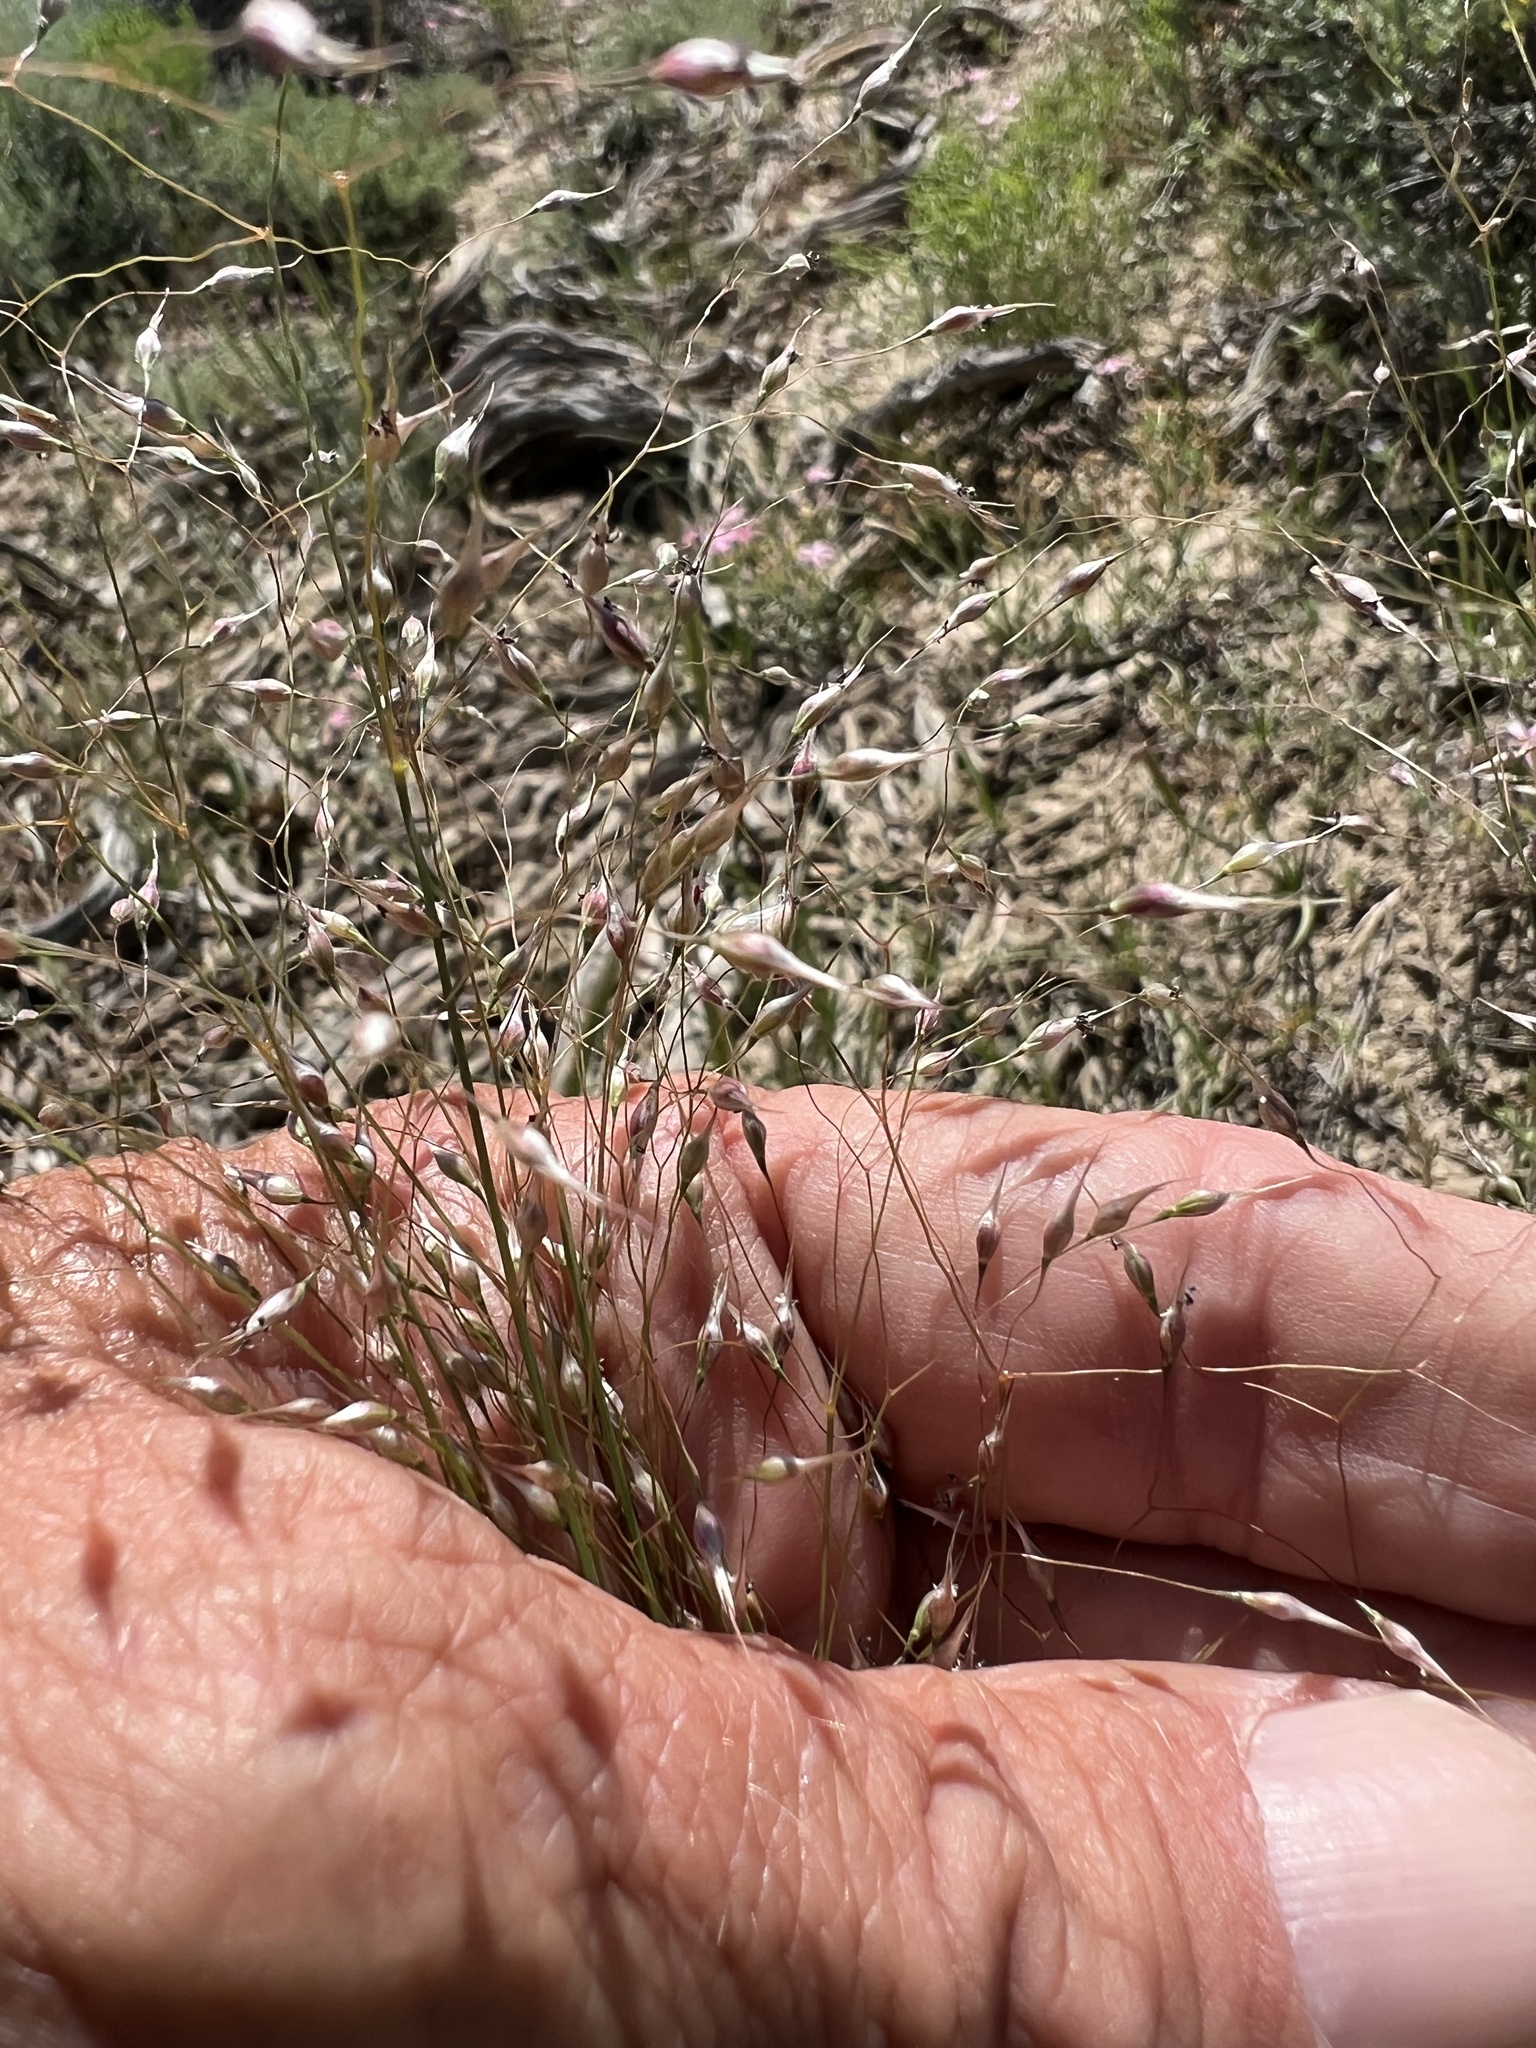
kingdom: Plantae
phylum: Tracheophyta
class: Liliopsida
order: Poales
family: Poaceae
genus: Eriocoma
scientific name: Eriocoma hymenoides
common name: Indian mountain ricegrass
